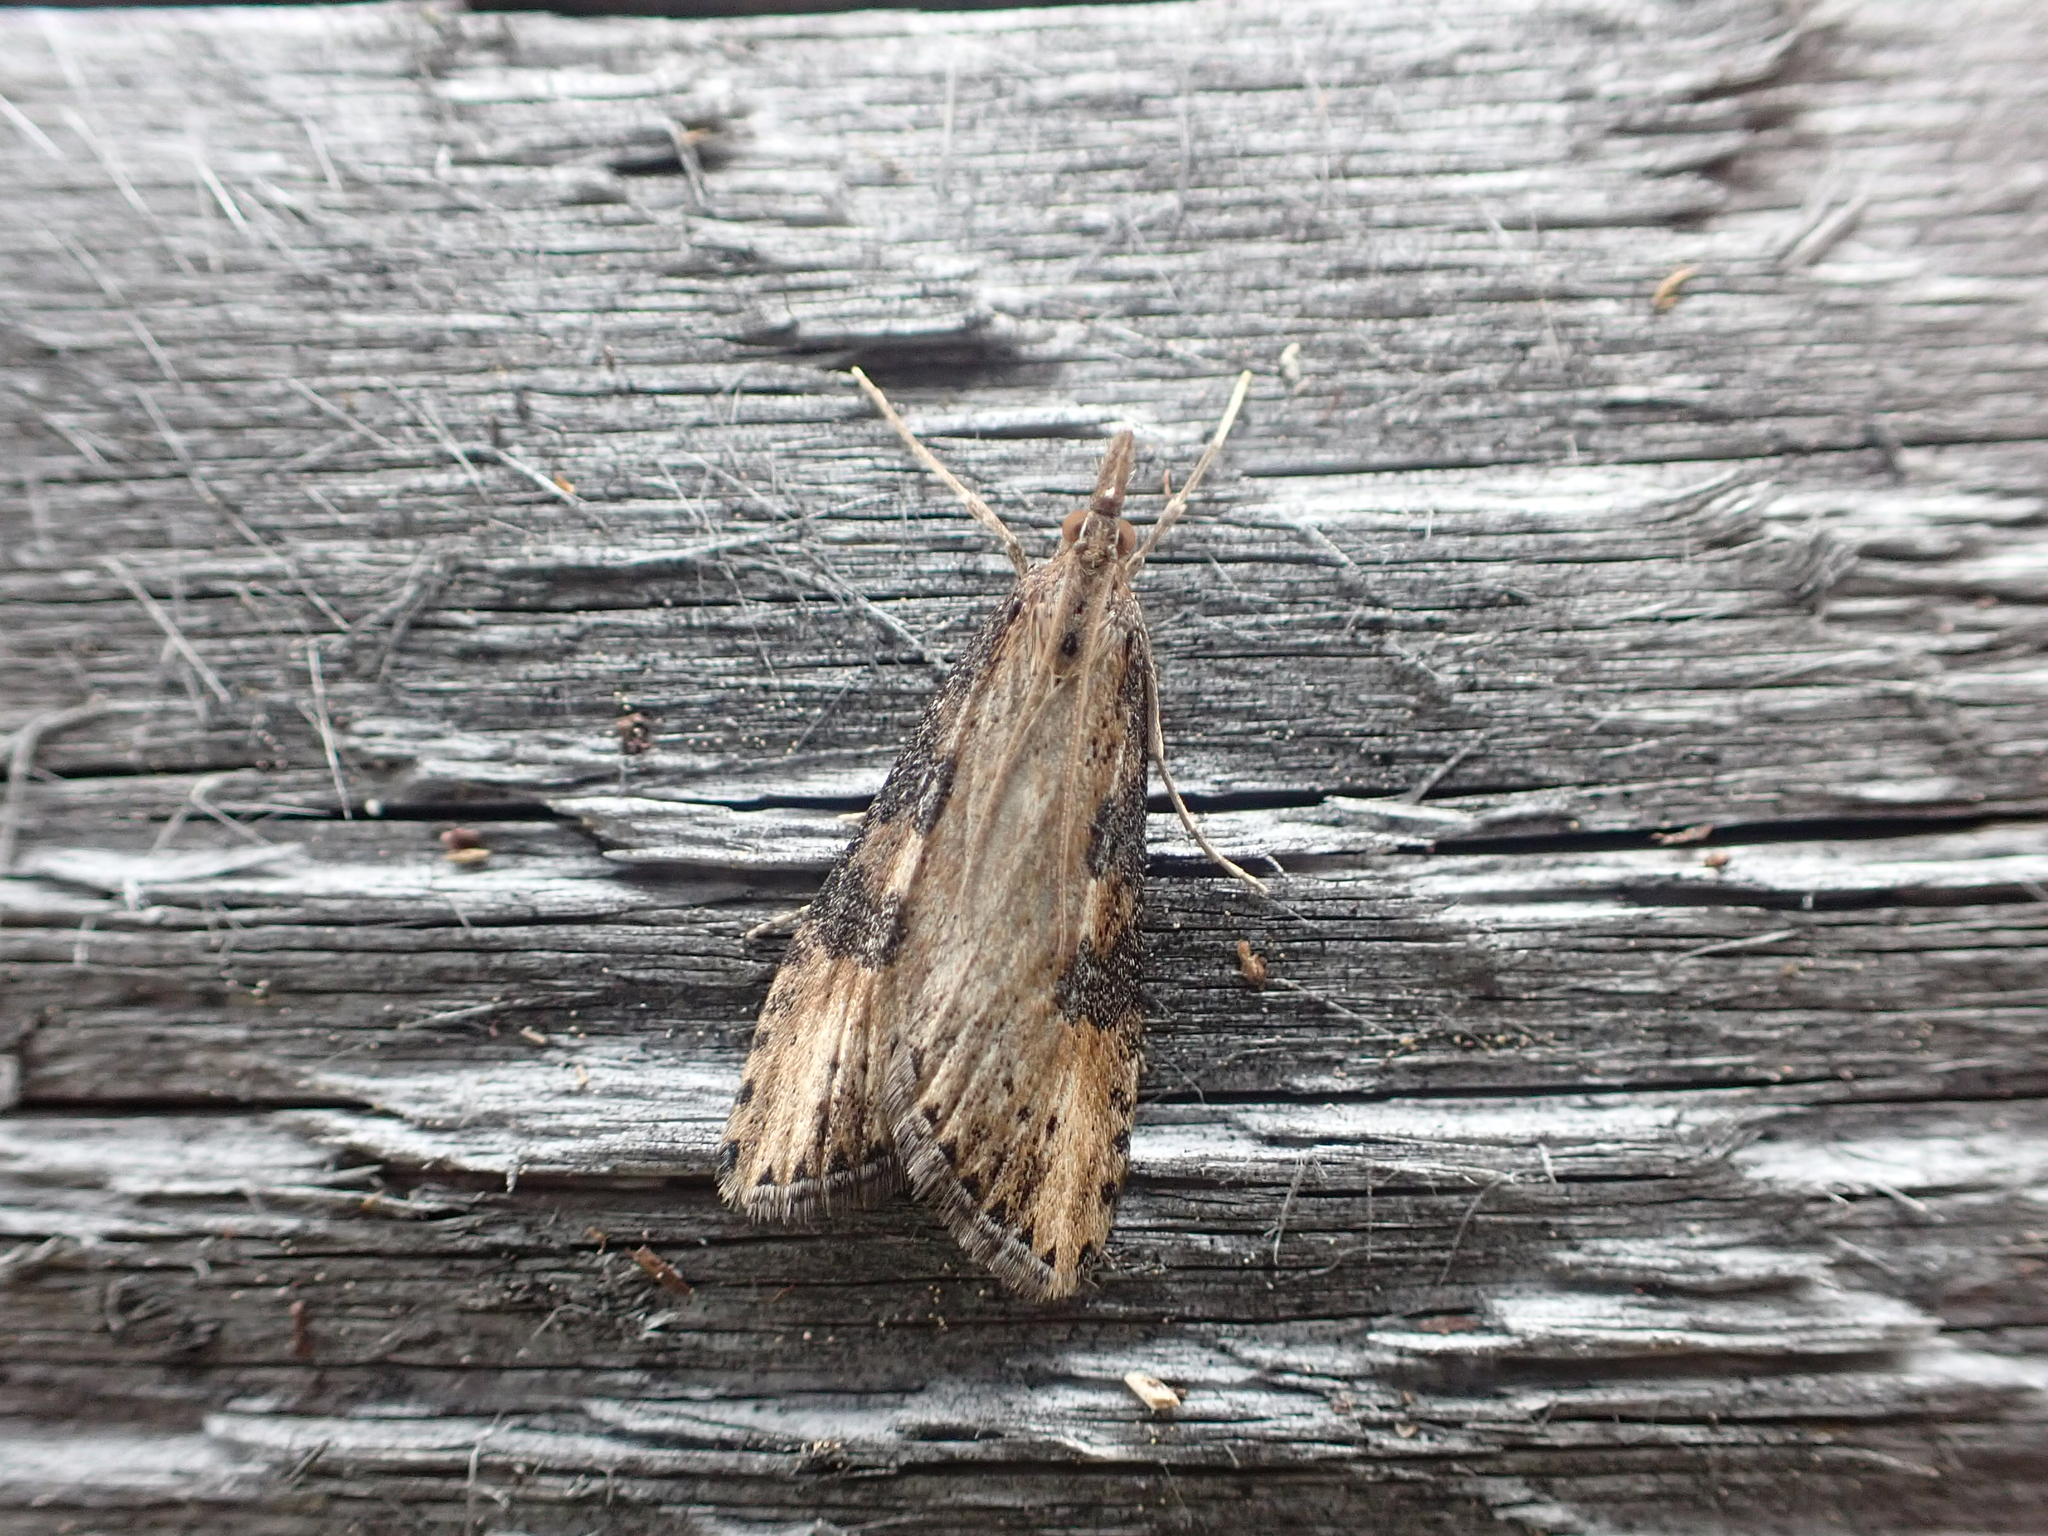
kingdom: Animalia
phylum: Arthropoda
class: Insecta
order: Lepidoptera
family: Crambidae
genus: Udea
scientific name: Udea itysalis
